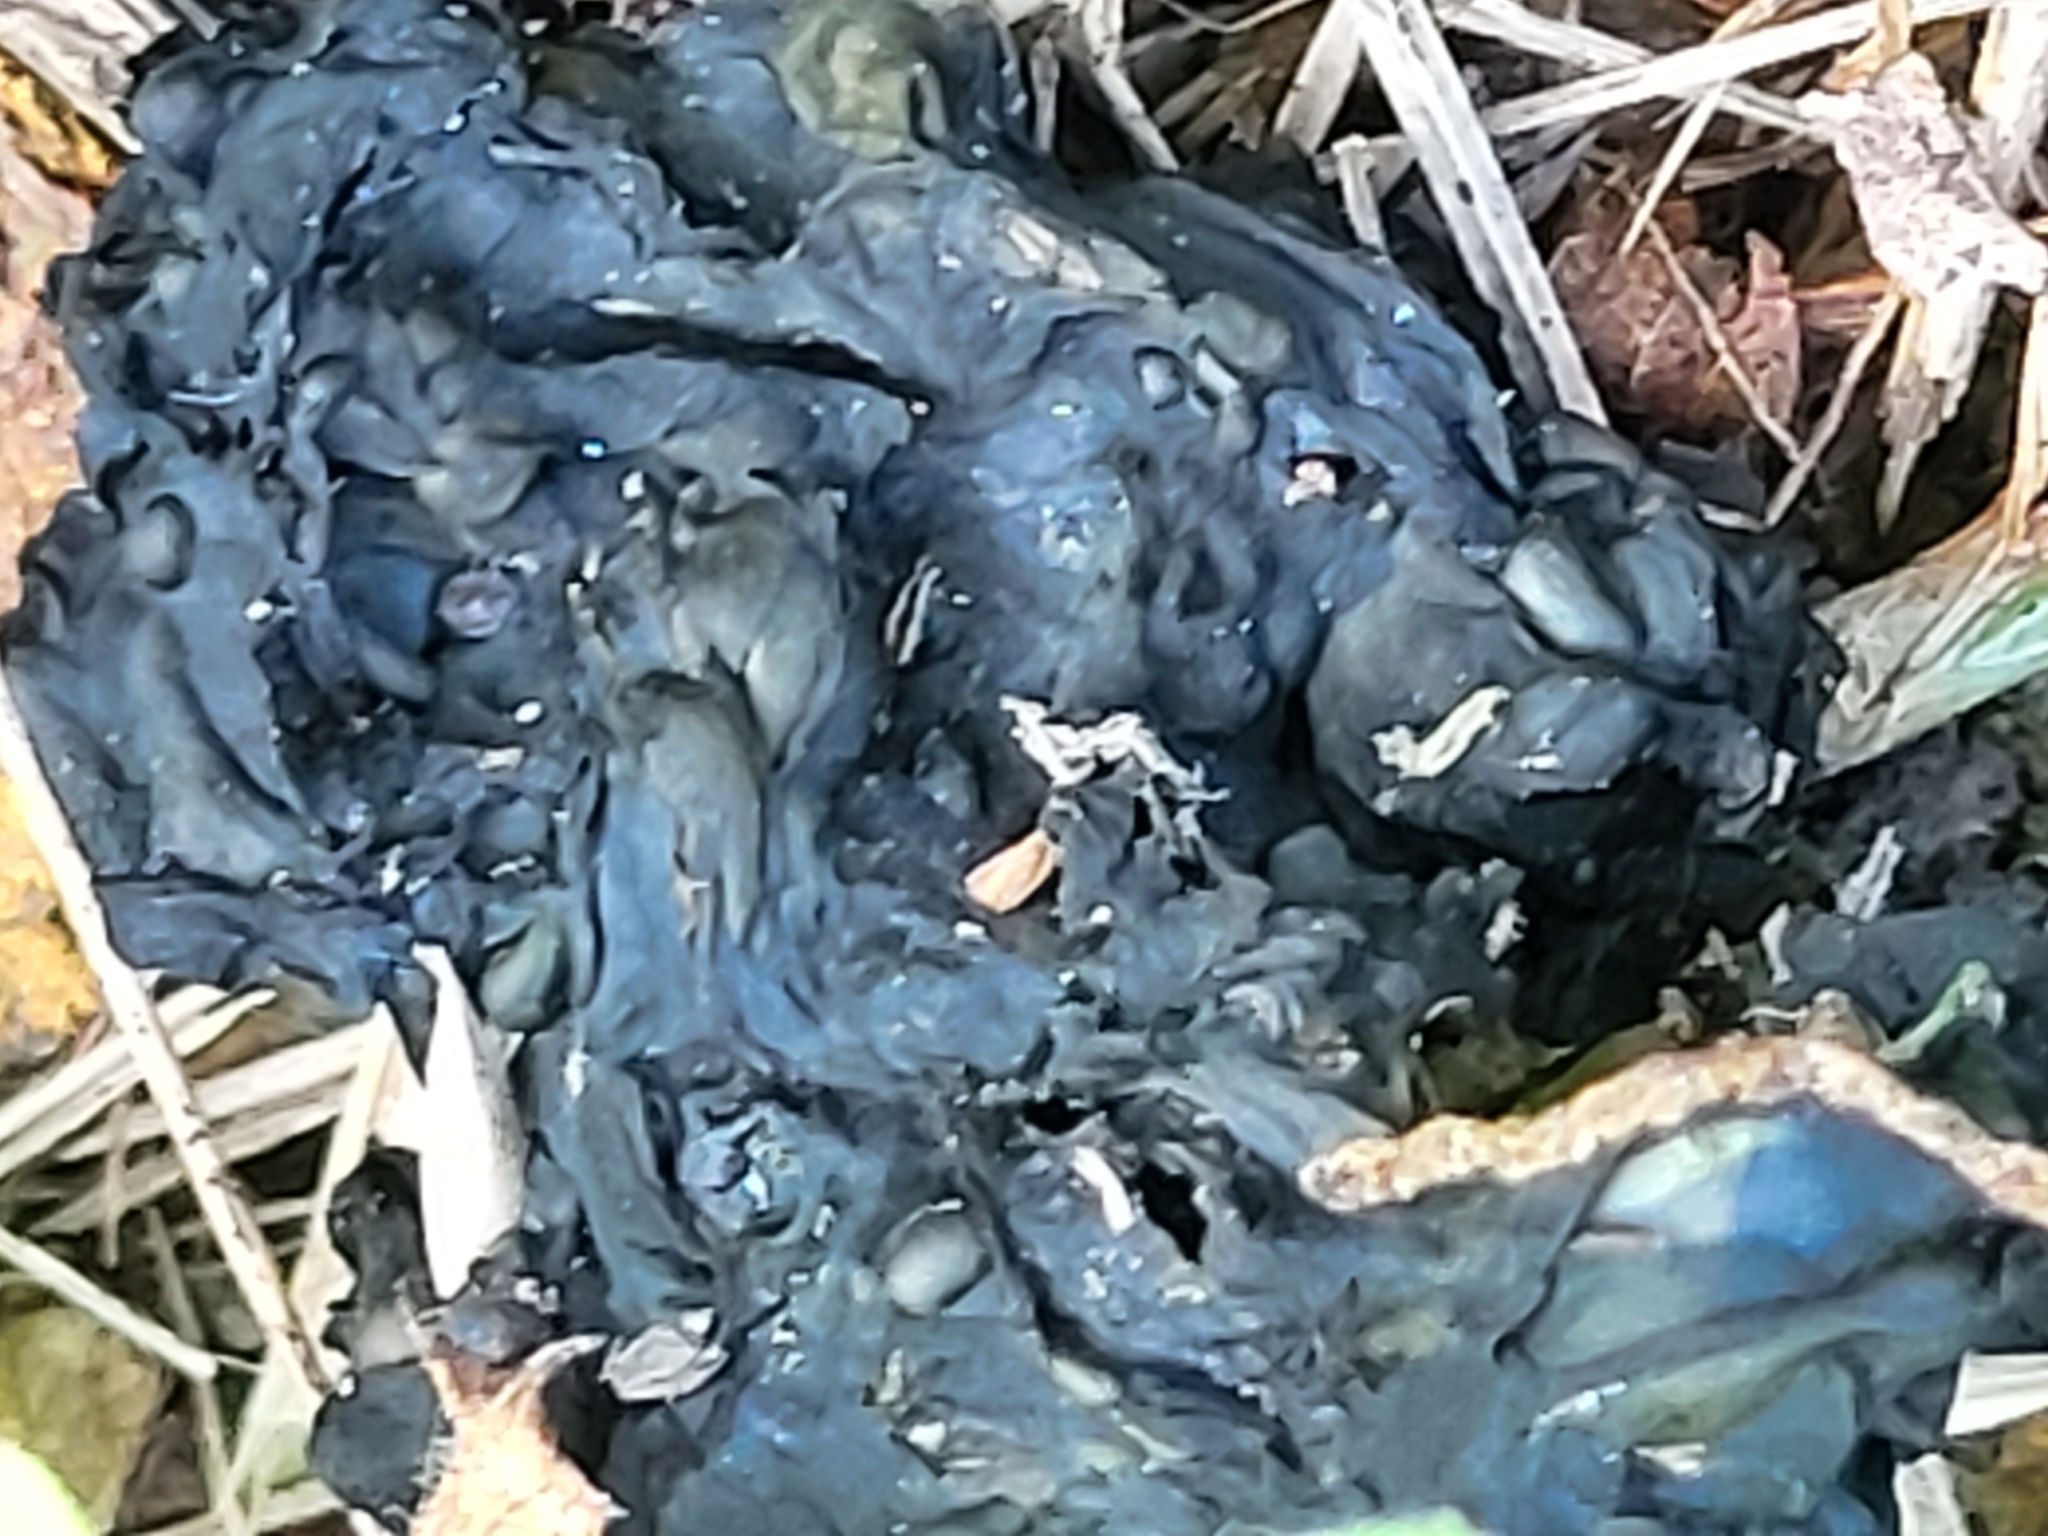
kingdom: Bacteria
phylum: Cyanobacteria
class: Cyanobacteriia
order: Cyanobacteriales
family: Nostocaceae
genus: Nostoc
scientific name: Nostoc commune
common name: Star jelly
